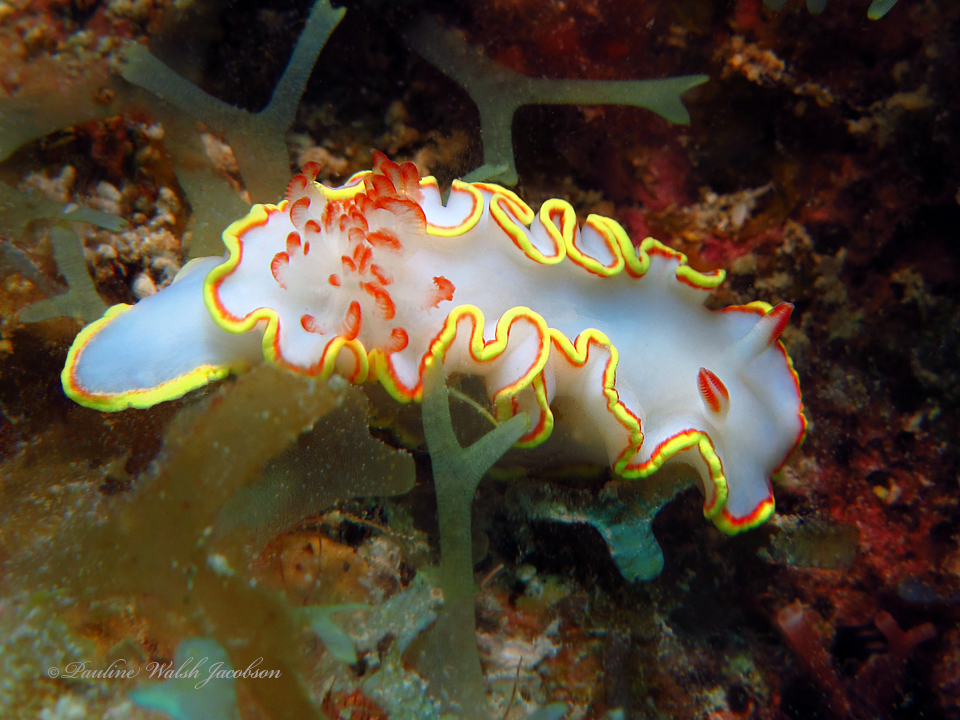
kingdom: Animalia
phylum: Mollusca
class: Gastropoda
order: Nudibranchia
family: Chromodorididae
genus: Chromolaichma
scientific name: Chromolaichma sedna
